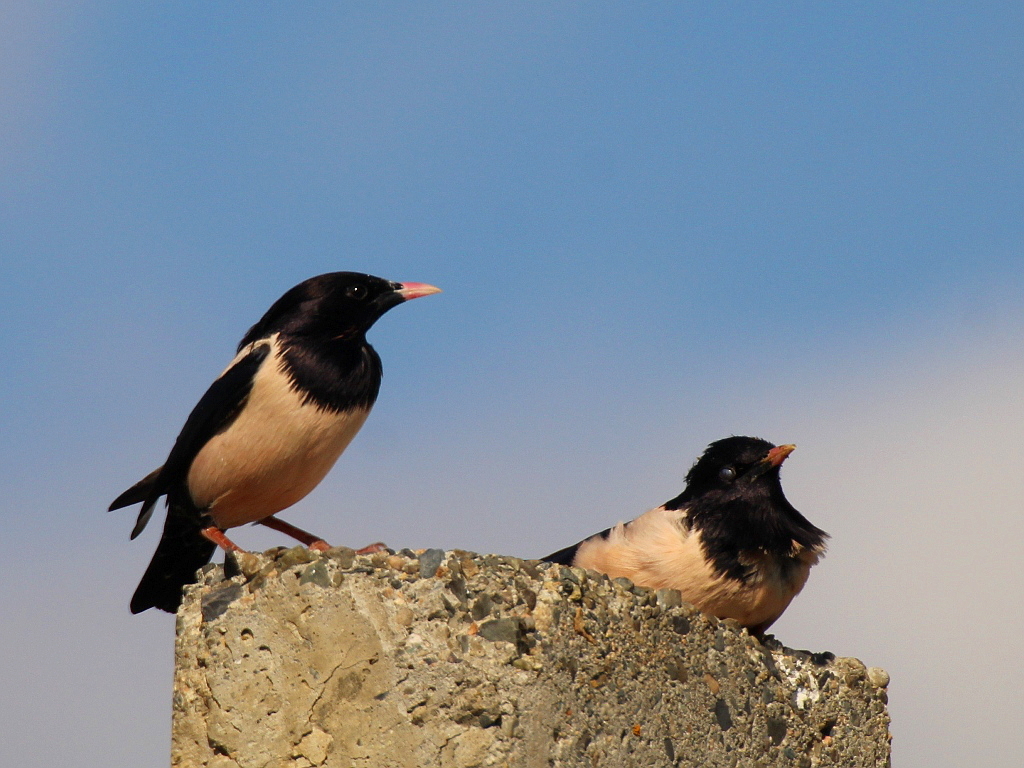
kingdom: Animalia
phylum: Chordata
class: Aves
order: Passeriformes
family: Sturnidae
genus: Pastor
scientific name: Pastor roseus
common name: Rosy starling
